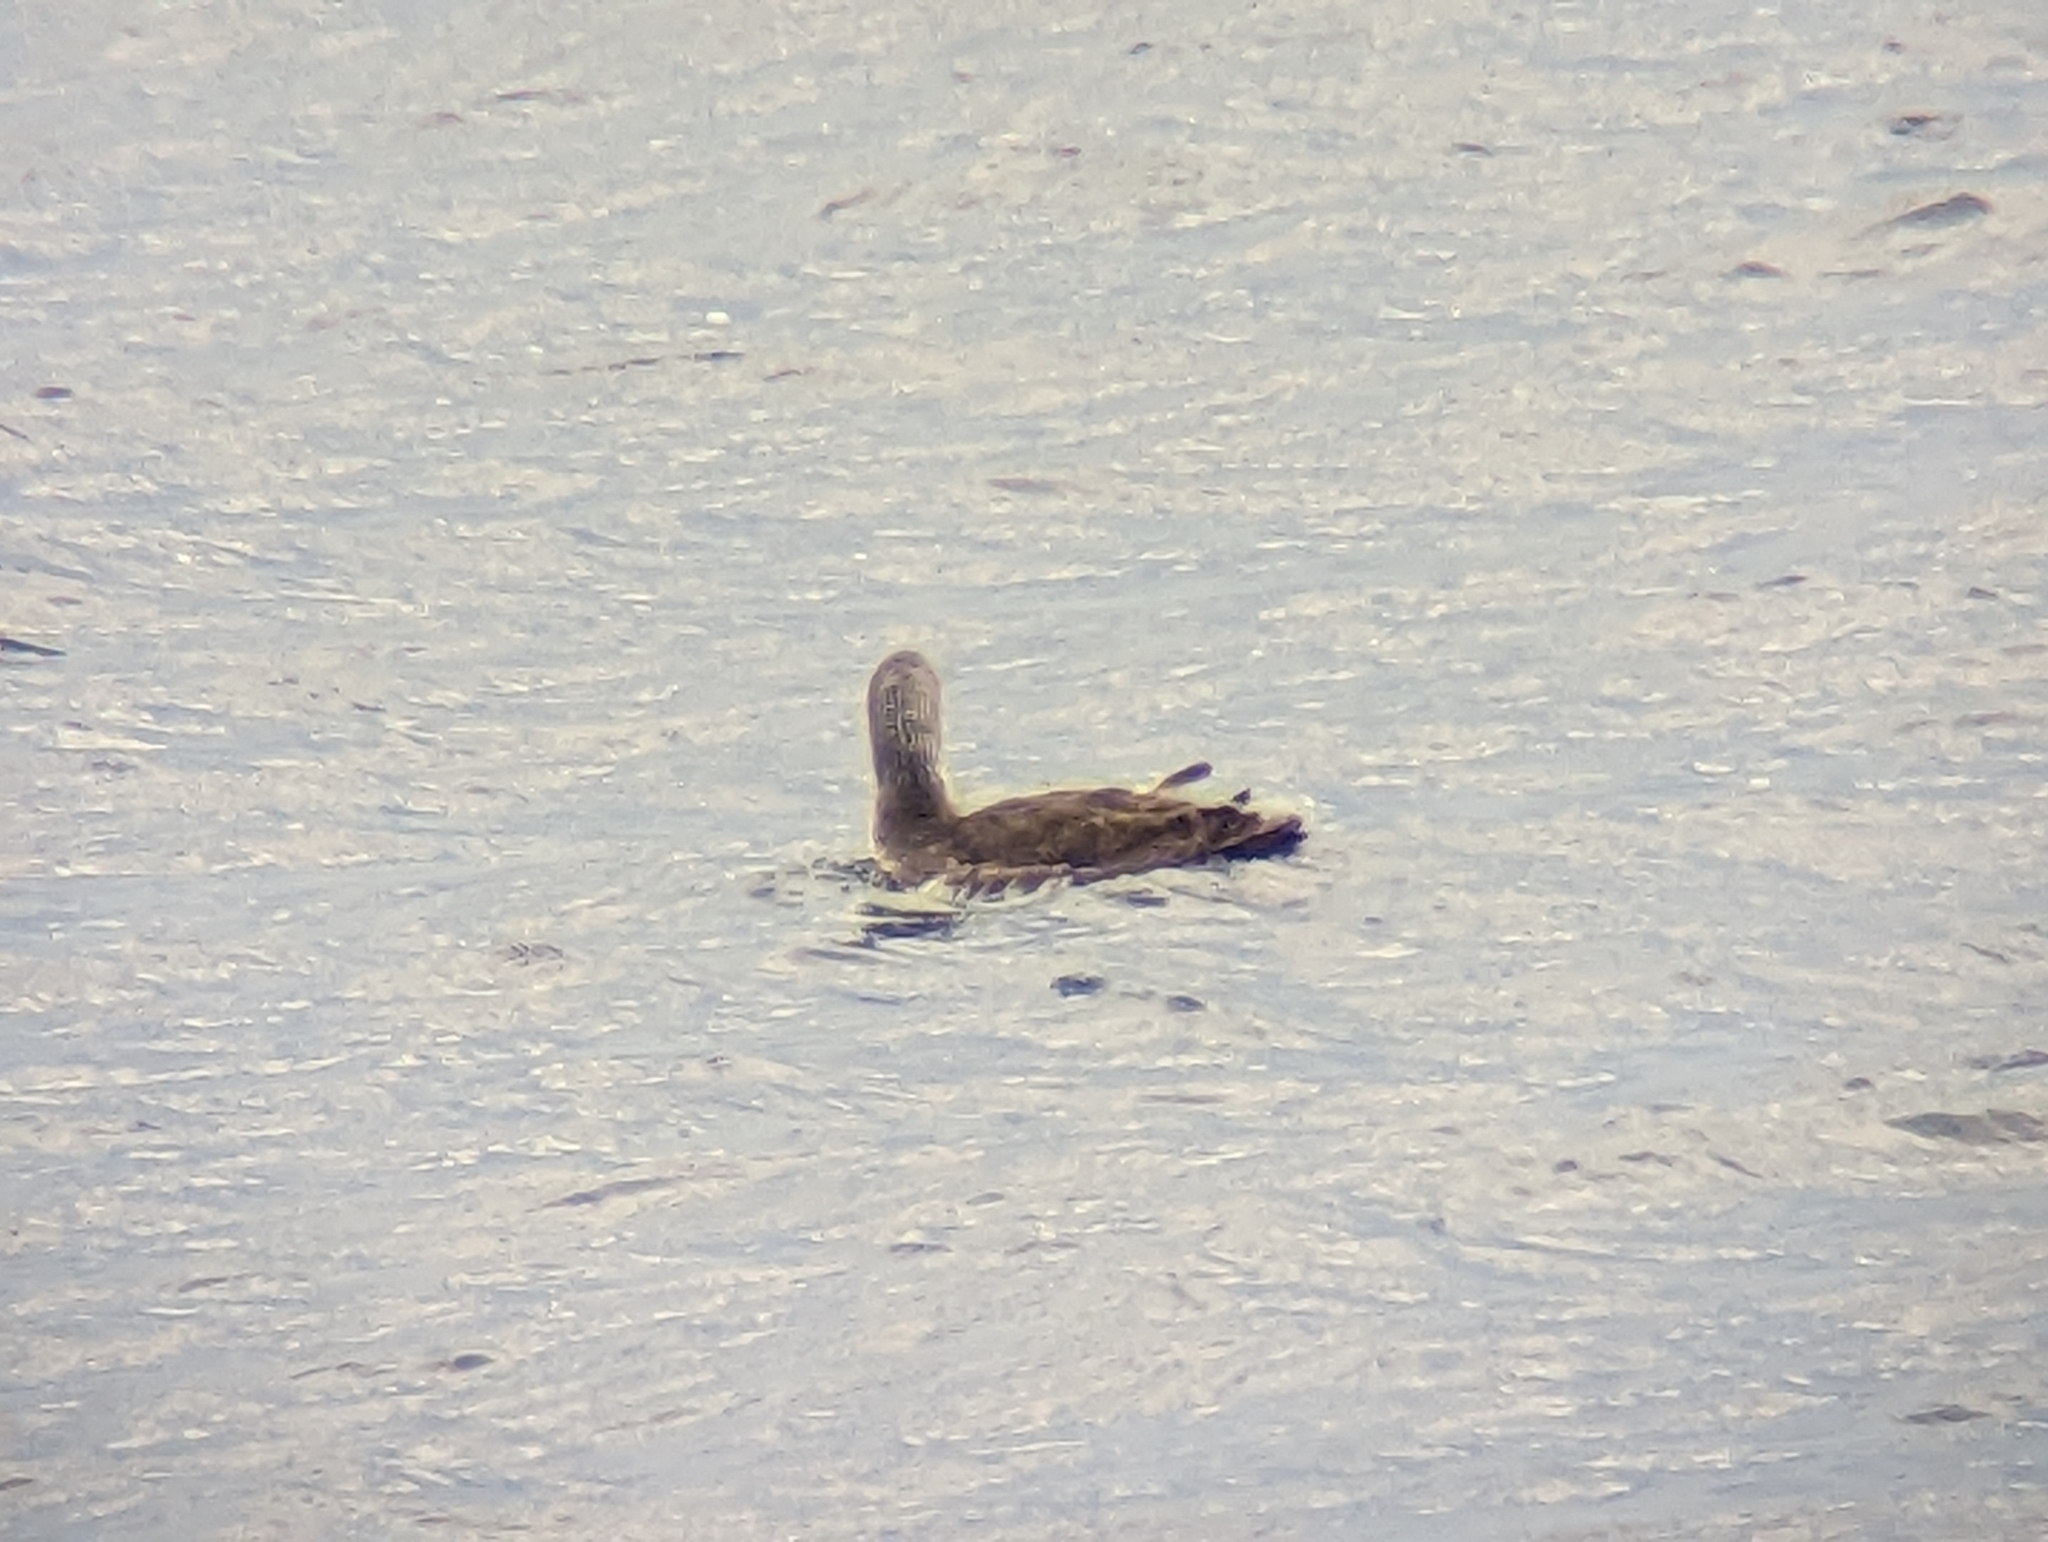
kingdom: Animalia
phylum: Chordata
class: Aves
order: Gaviiformes
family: Gaviidae
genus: Gavia
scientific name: Gavia stellata
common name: Red-throated loon
